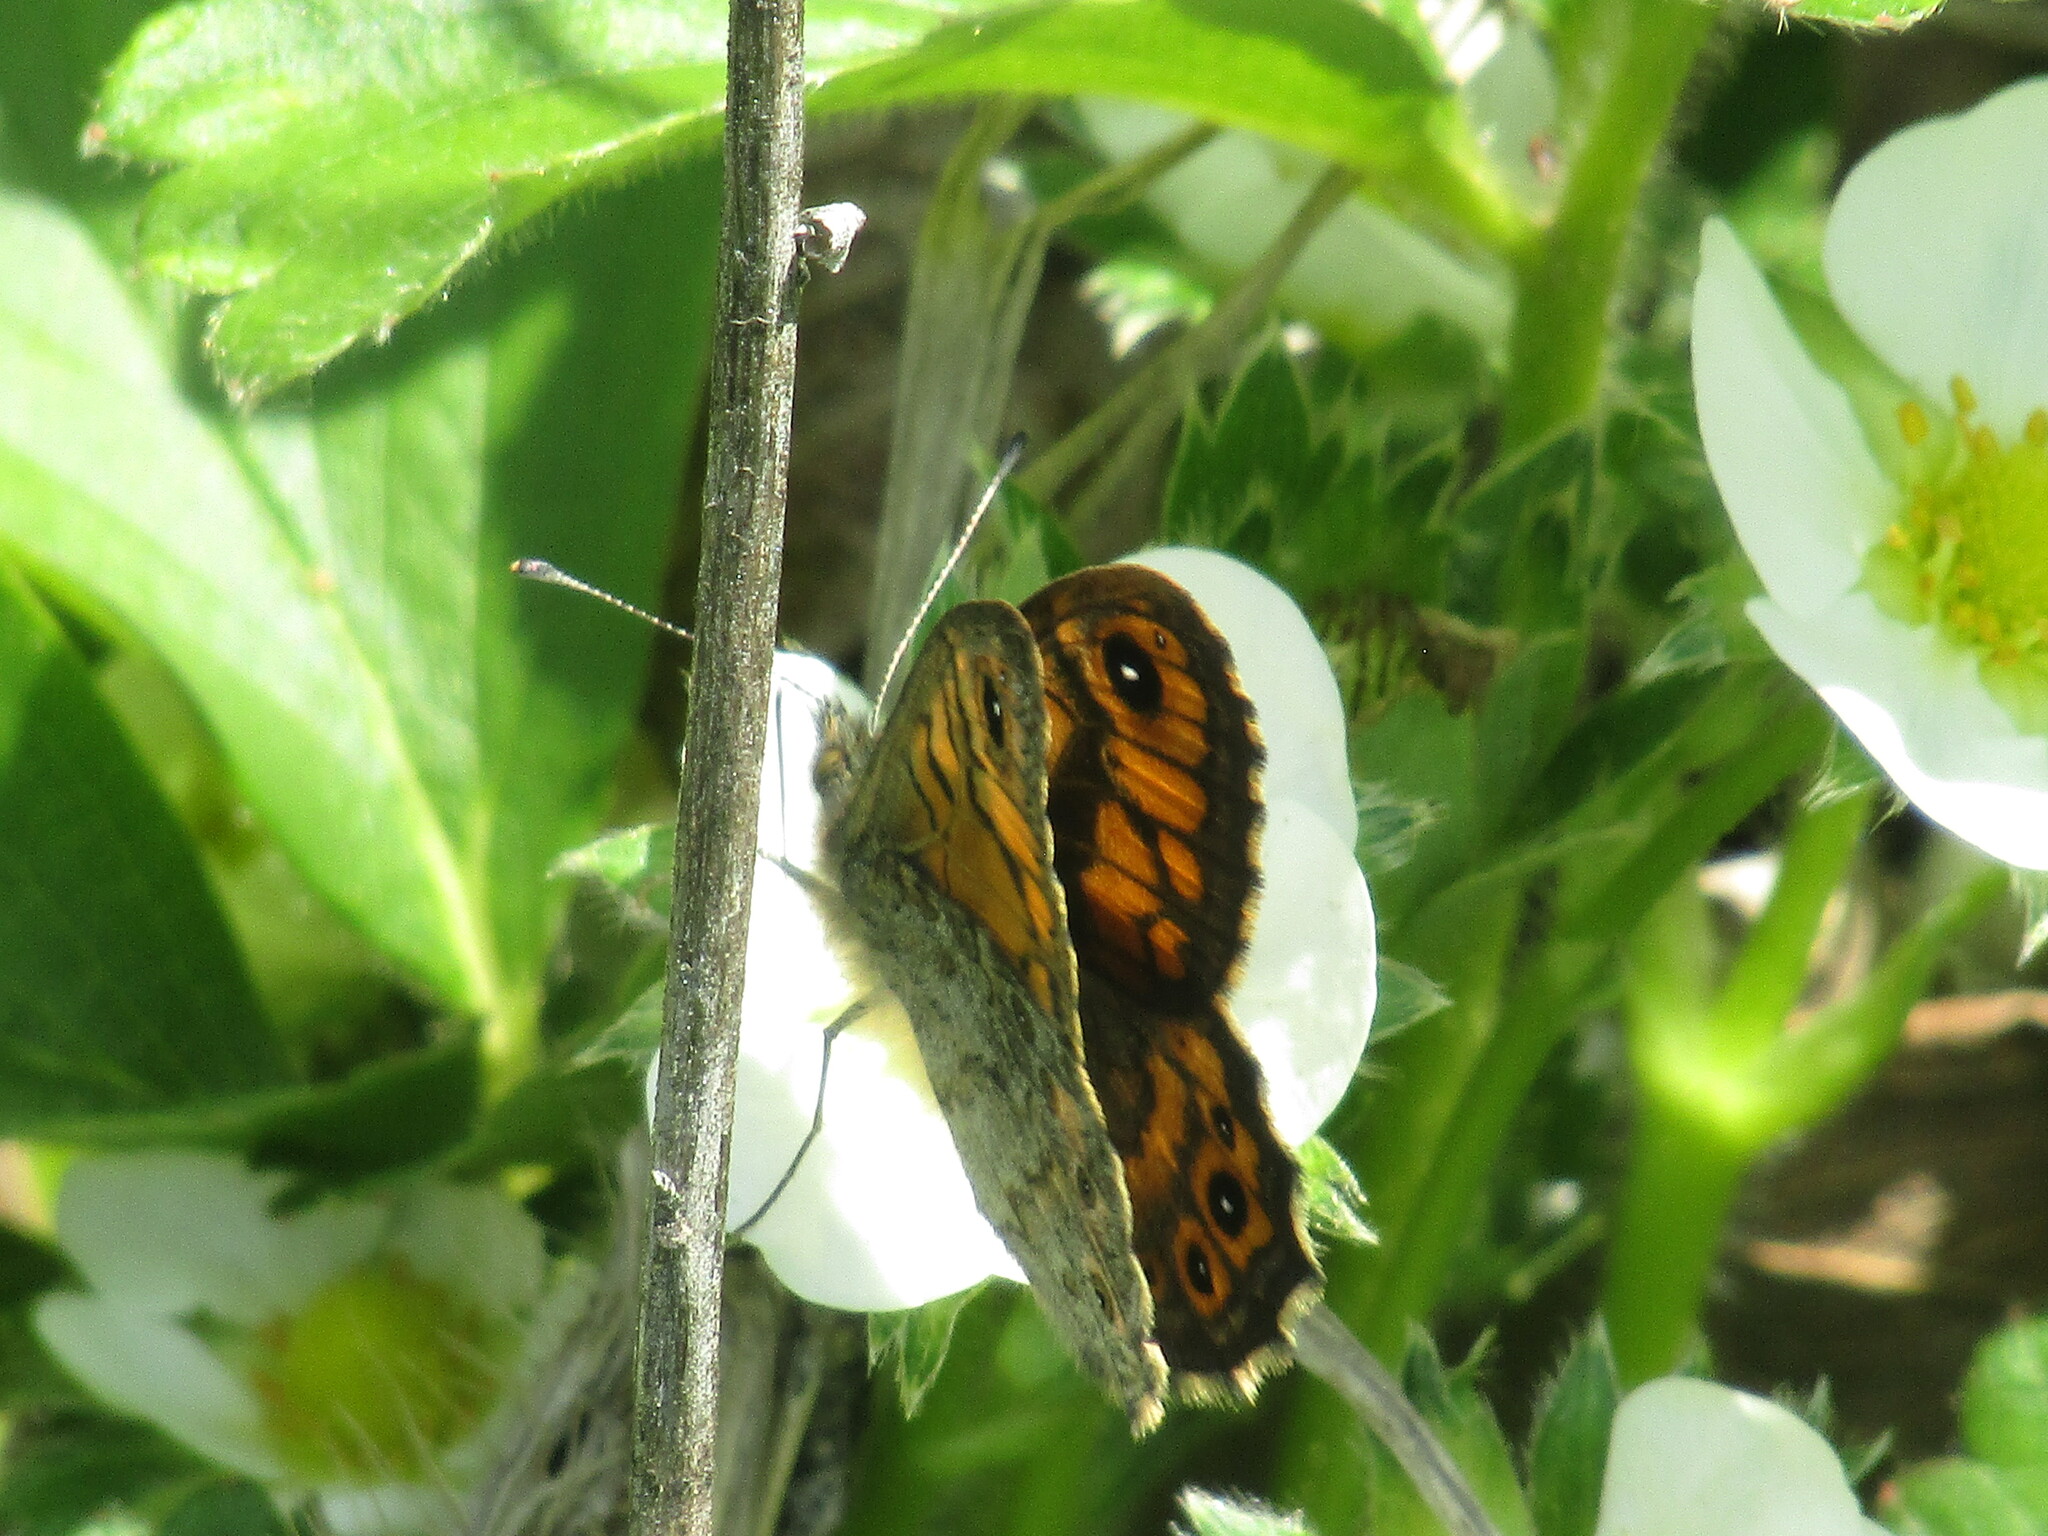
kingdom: Animalia
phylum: Arthropoda
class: Insecta
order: Lepidoptera
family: Nymphalidae
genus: Pararge
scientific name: Pararge Lasiommata megera
